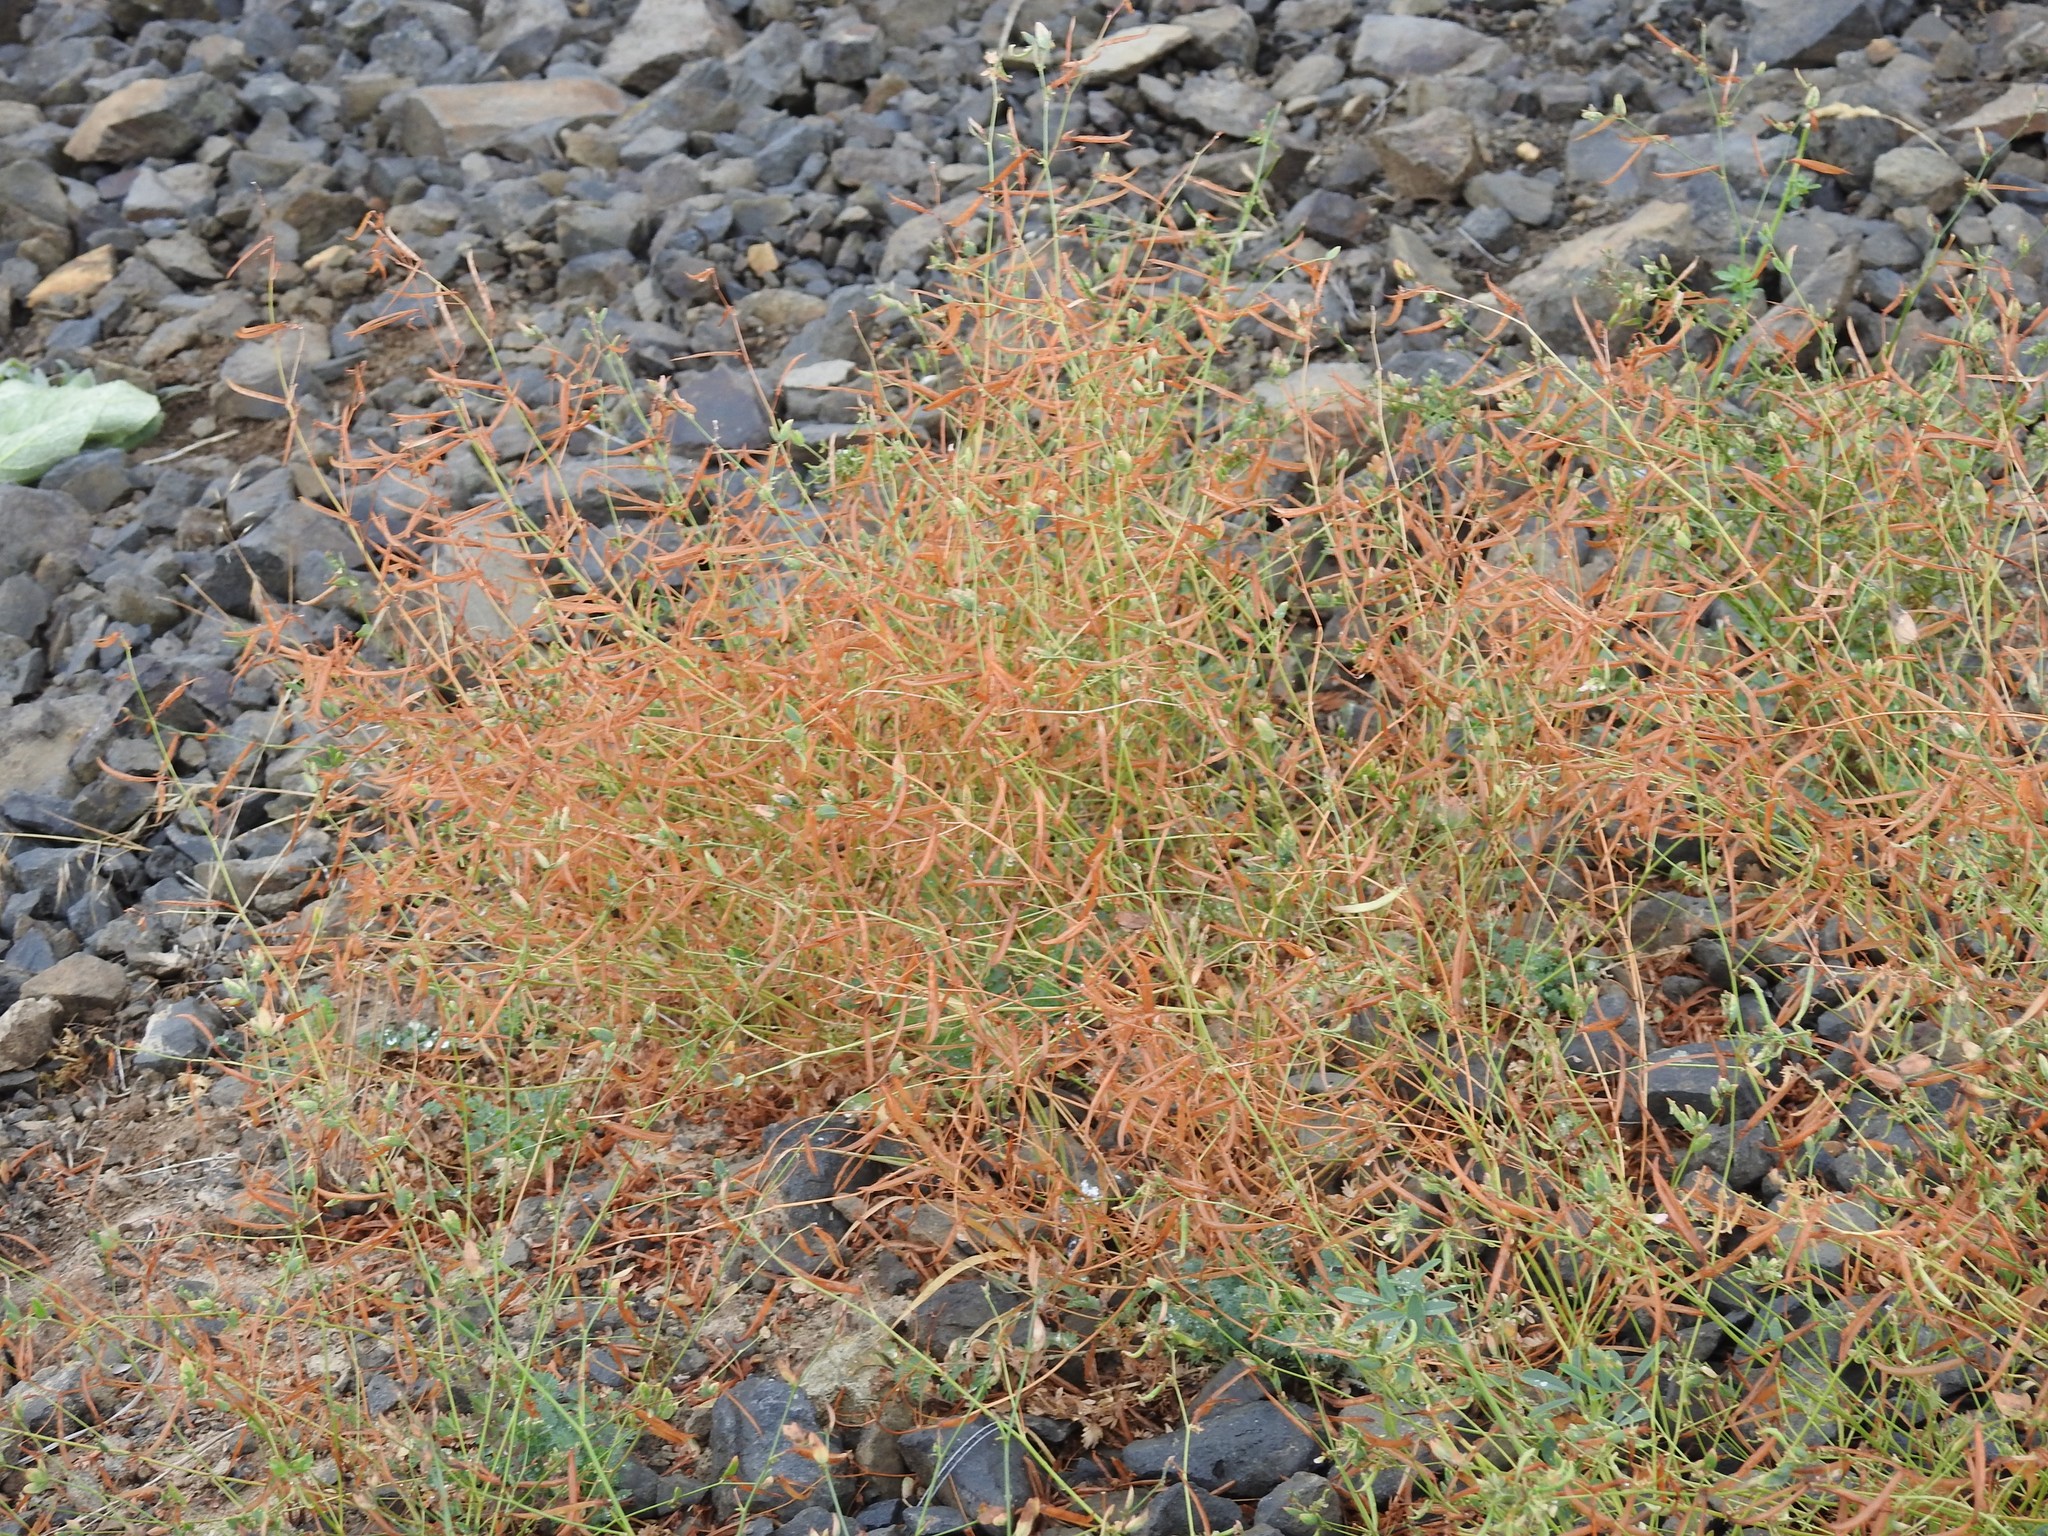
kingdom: Plantae
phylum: Tracheophyta
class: Magnoliopsida
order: Fabales
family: Fabaceae
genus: Acmispon
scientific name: Acmispon americanus
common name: American bird's-foot trefoil
